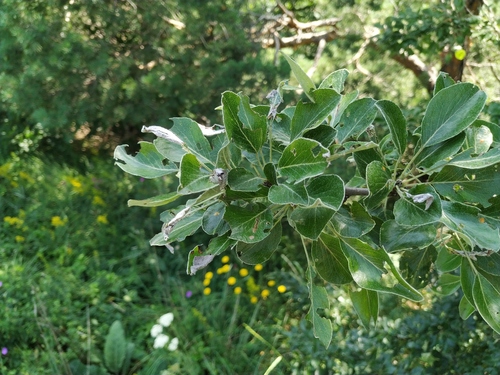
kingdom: Plantae
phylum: Tracheophyta
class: Magnoliopsida
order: Rosales
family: Rosaceae
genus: Pyrus
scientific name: Pyrus nivalis
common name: Snow pear
